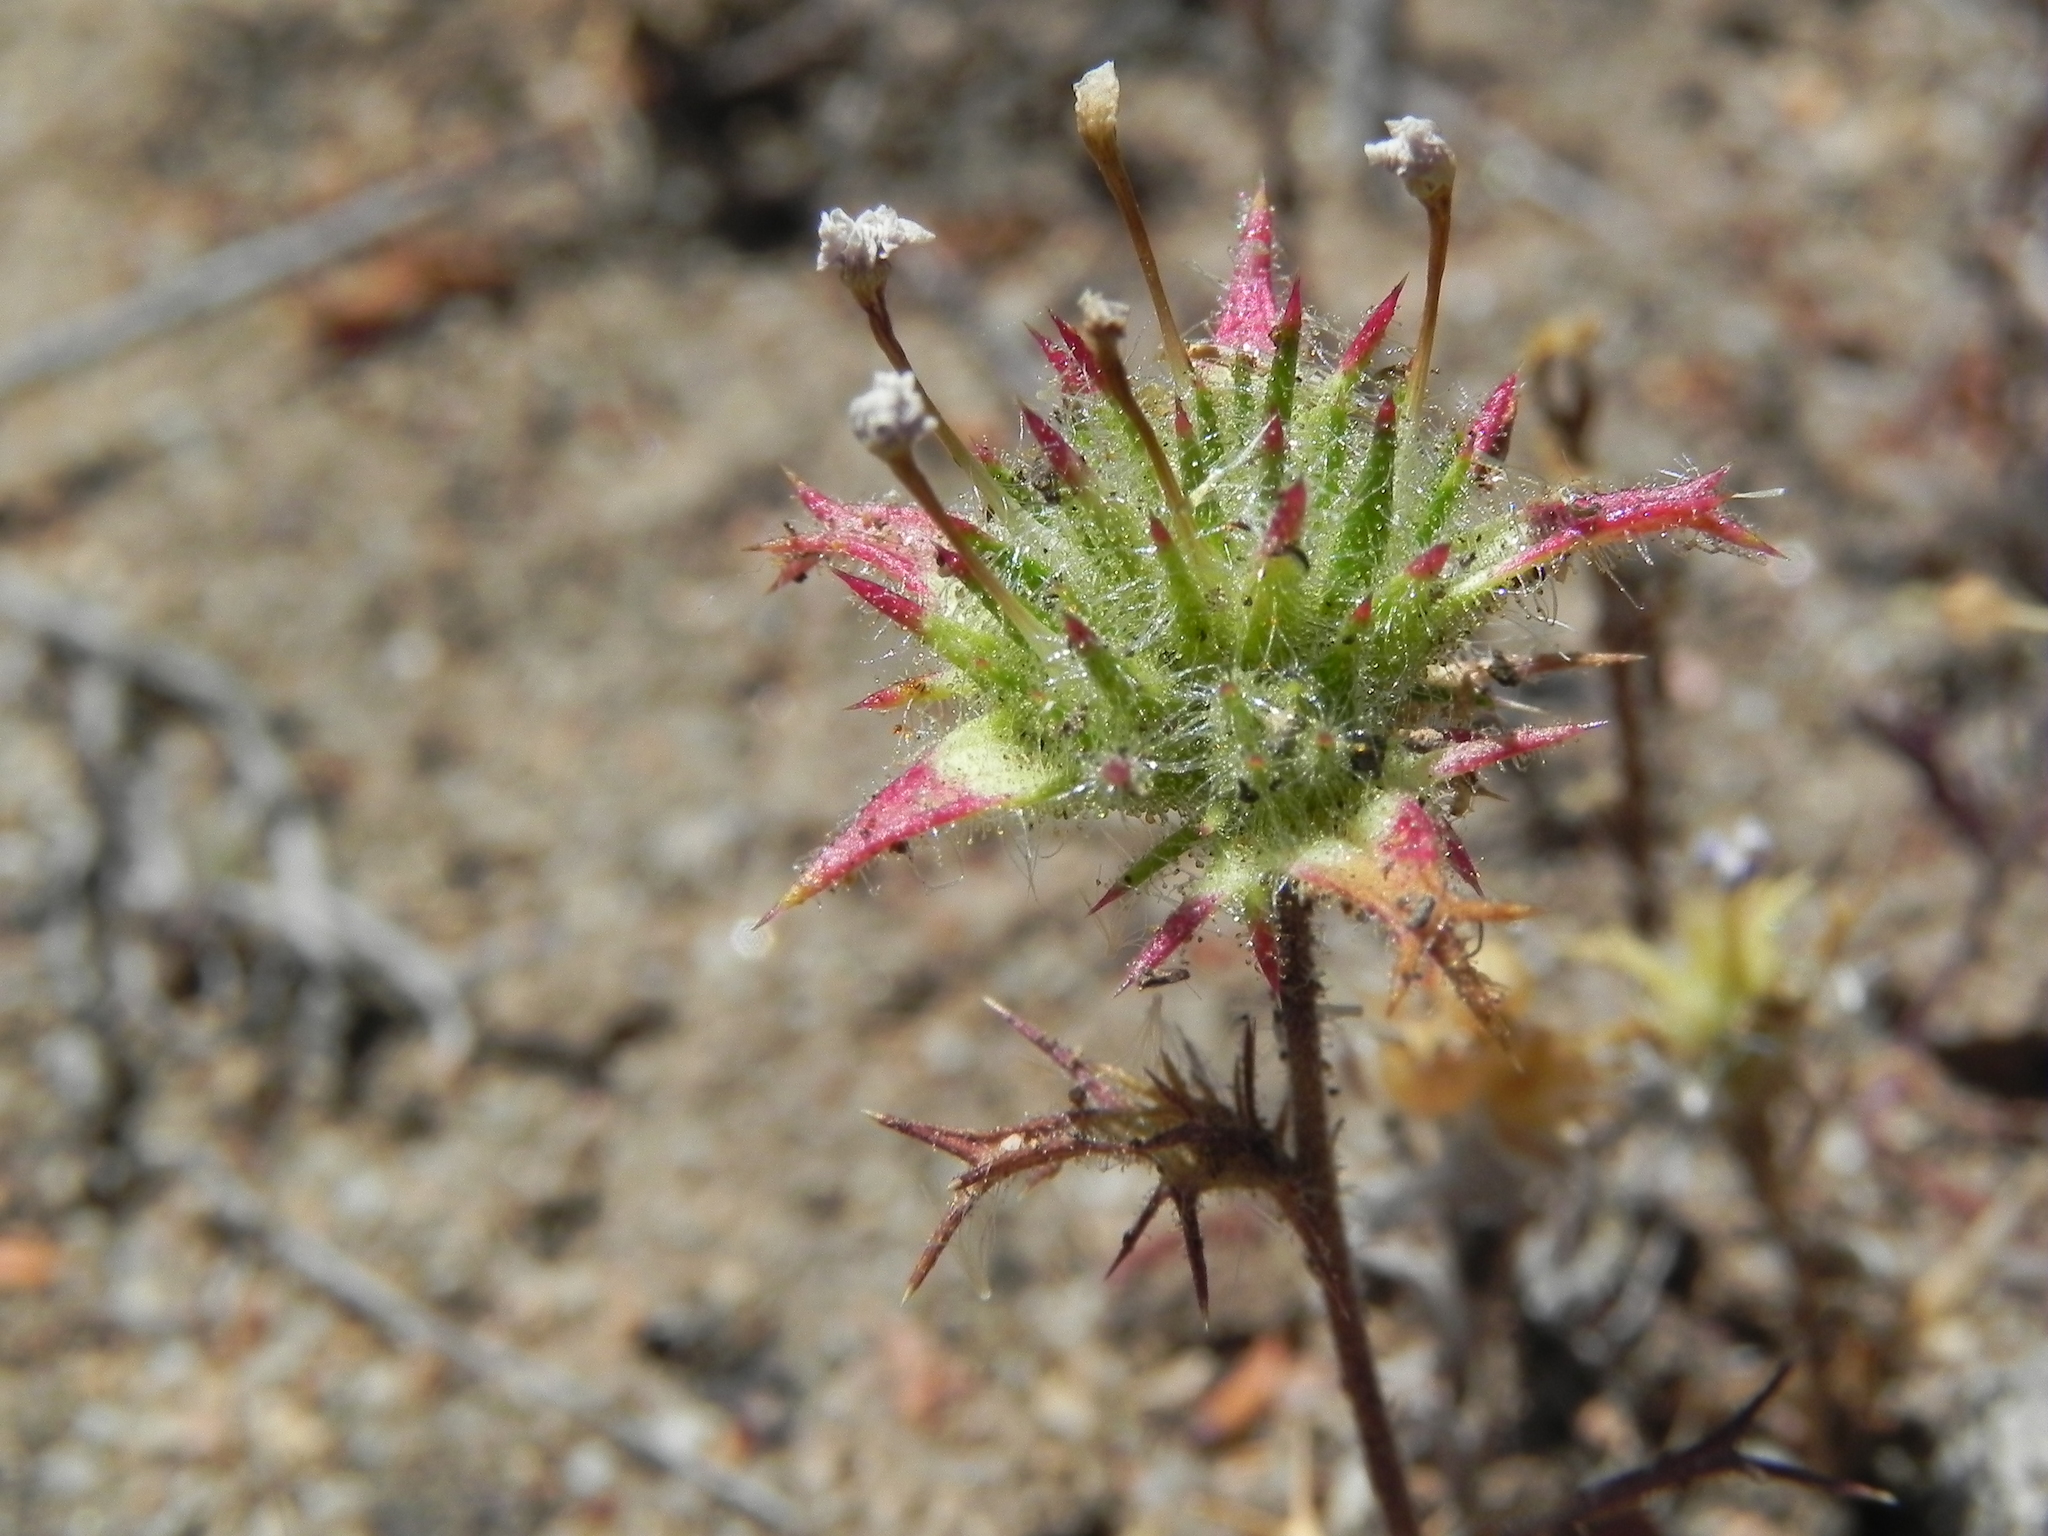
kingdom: Plantae
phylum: Tracheophyta
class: Magnoliopsida
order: Ericales
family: Polemoniaceae
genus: Navarretia
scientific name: Navarretia hamata
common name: Hooked navarretia
